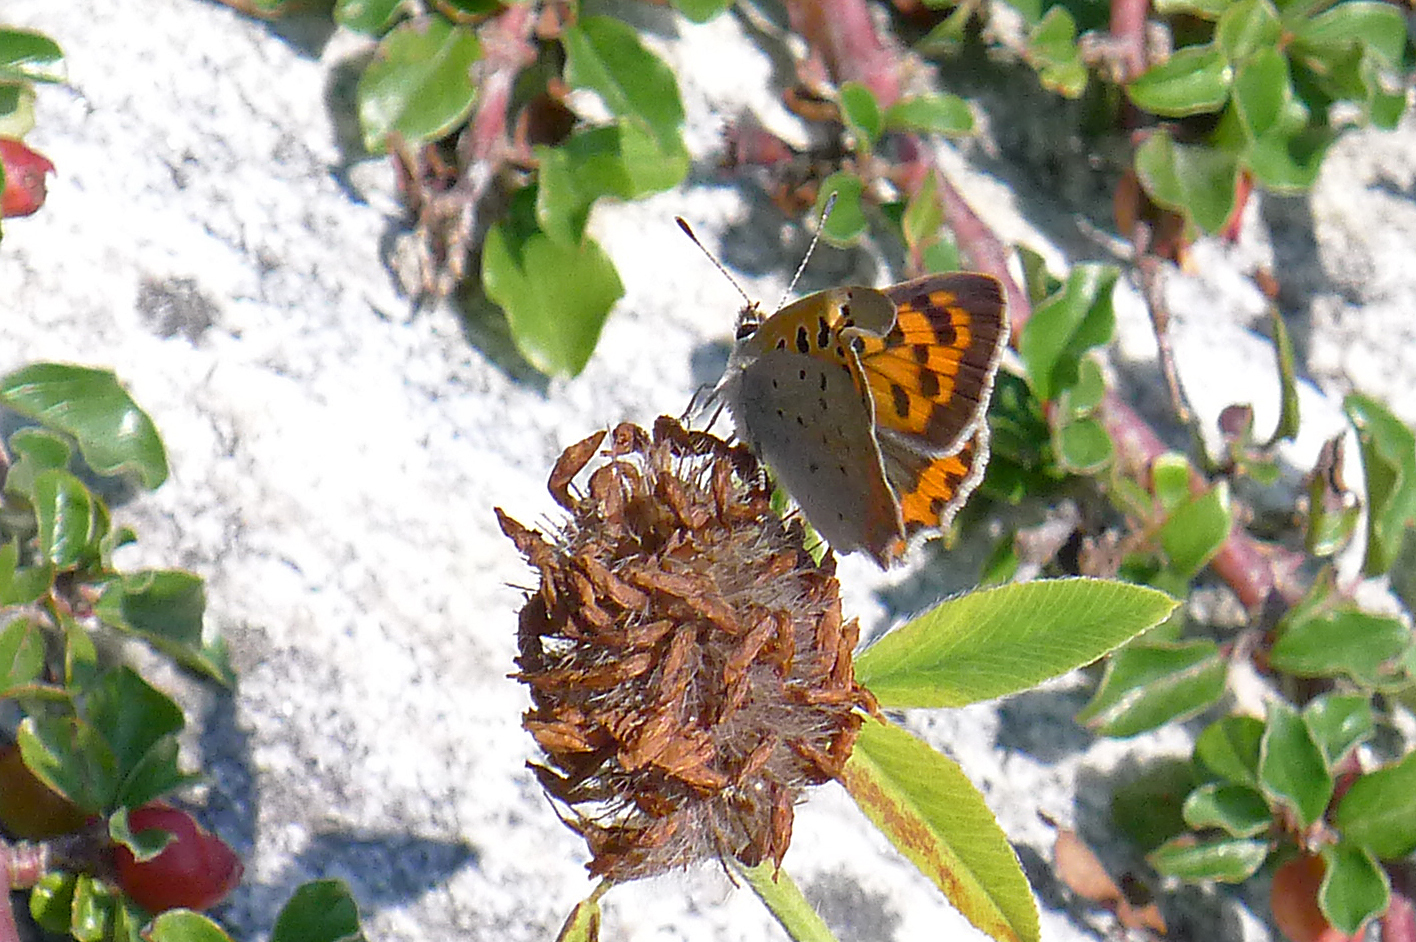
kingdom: Animalia
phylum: Arthropoda
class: Insecta
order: Lepidoptera
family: Lycaenidae
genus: Lycaena
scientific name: Lycaena phlaeas
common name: Small copper
